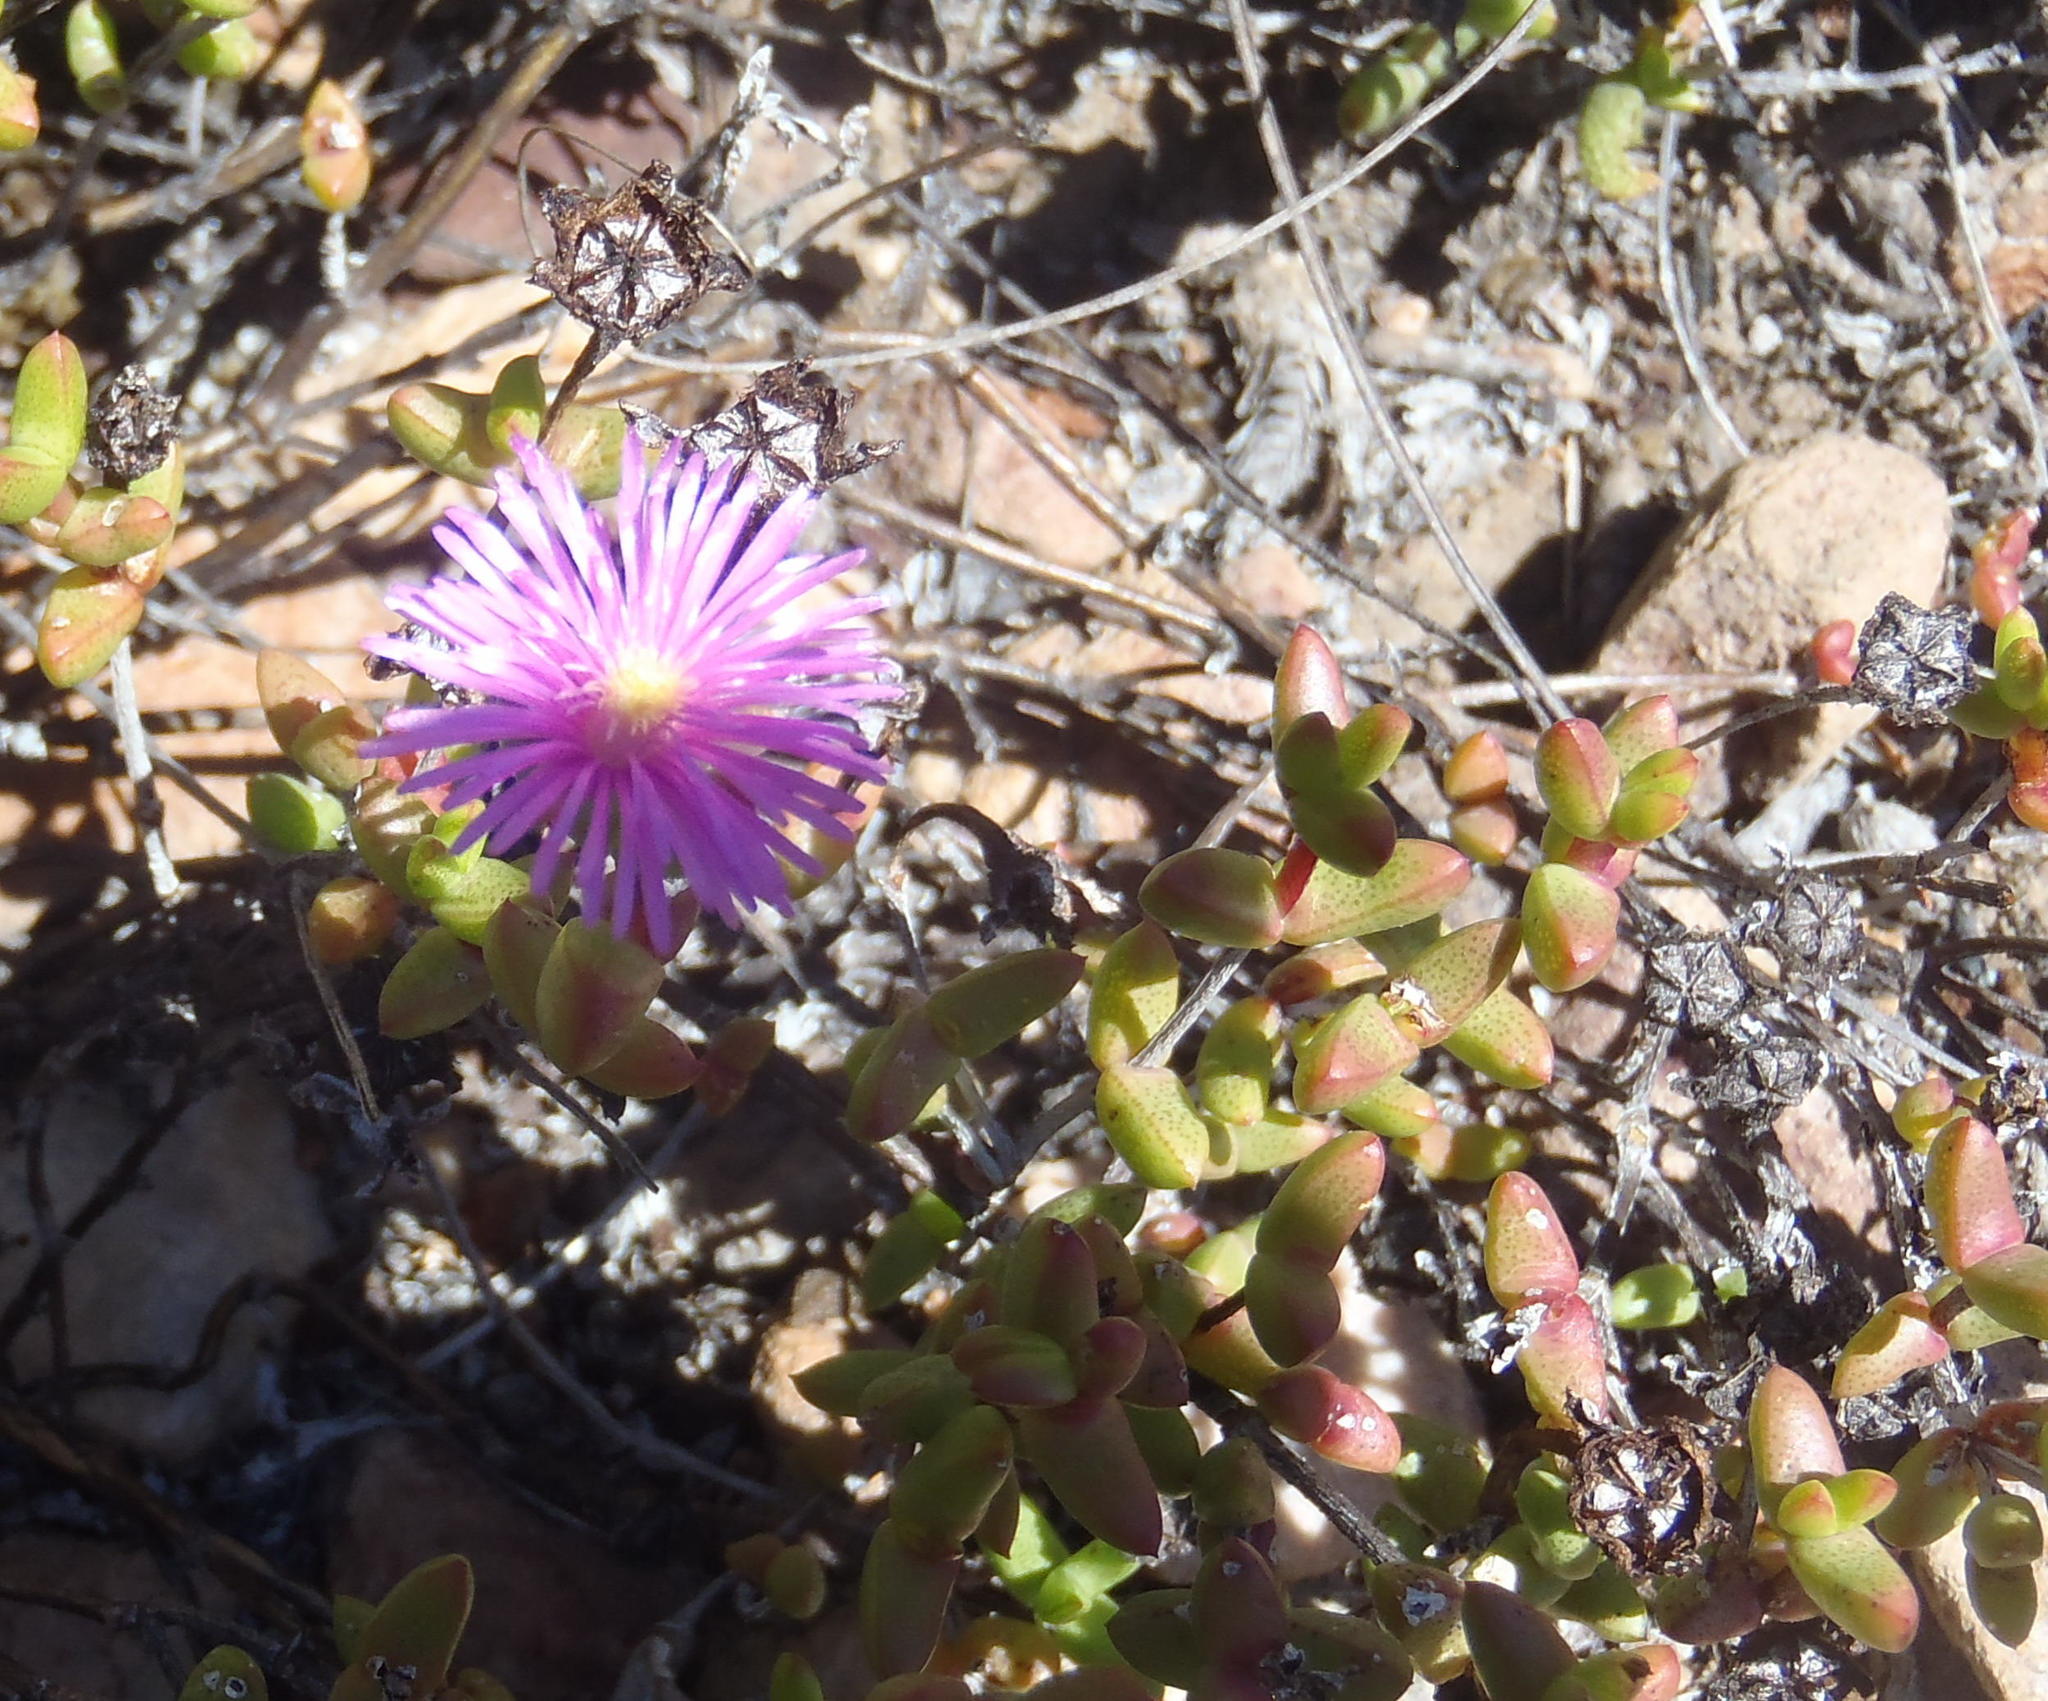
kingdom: Plantae
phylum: Tracheophyta
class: Magnoliopsida
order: Caryophyllales
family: Aizoaceae
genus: Ruschia
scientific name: Ruschia virgata
